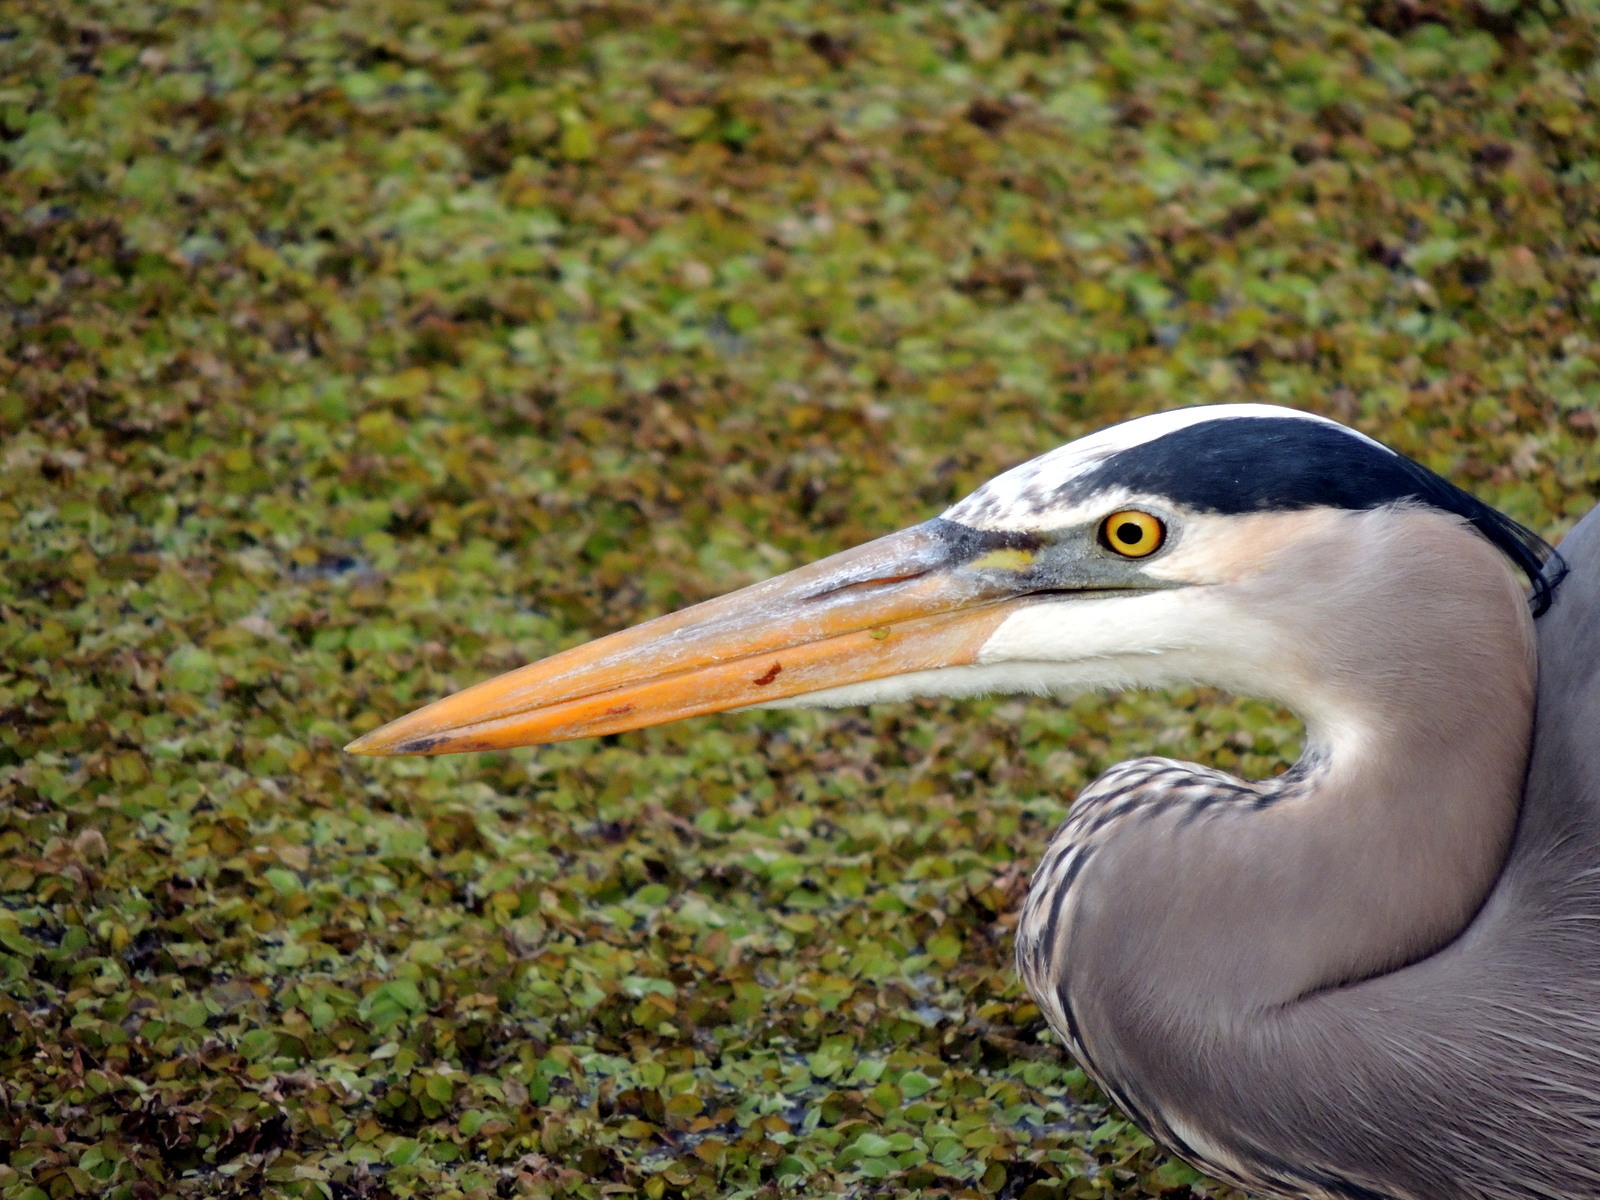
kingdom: Animalia
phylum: Chordata
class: Aves
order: Pelecaniformes
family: Ardeidae
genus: Ardea
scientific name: Ardea herodias
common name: Great blue heron
